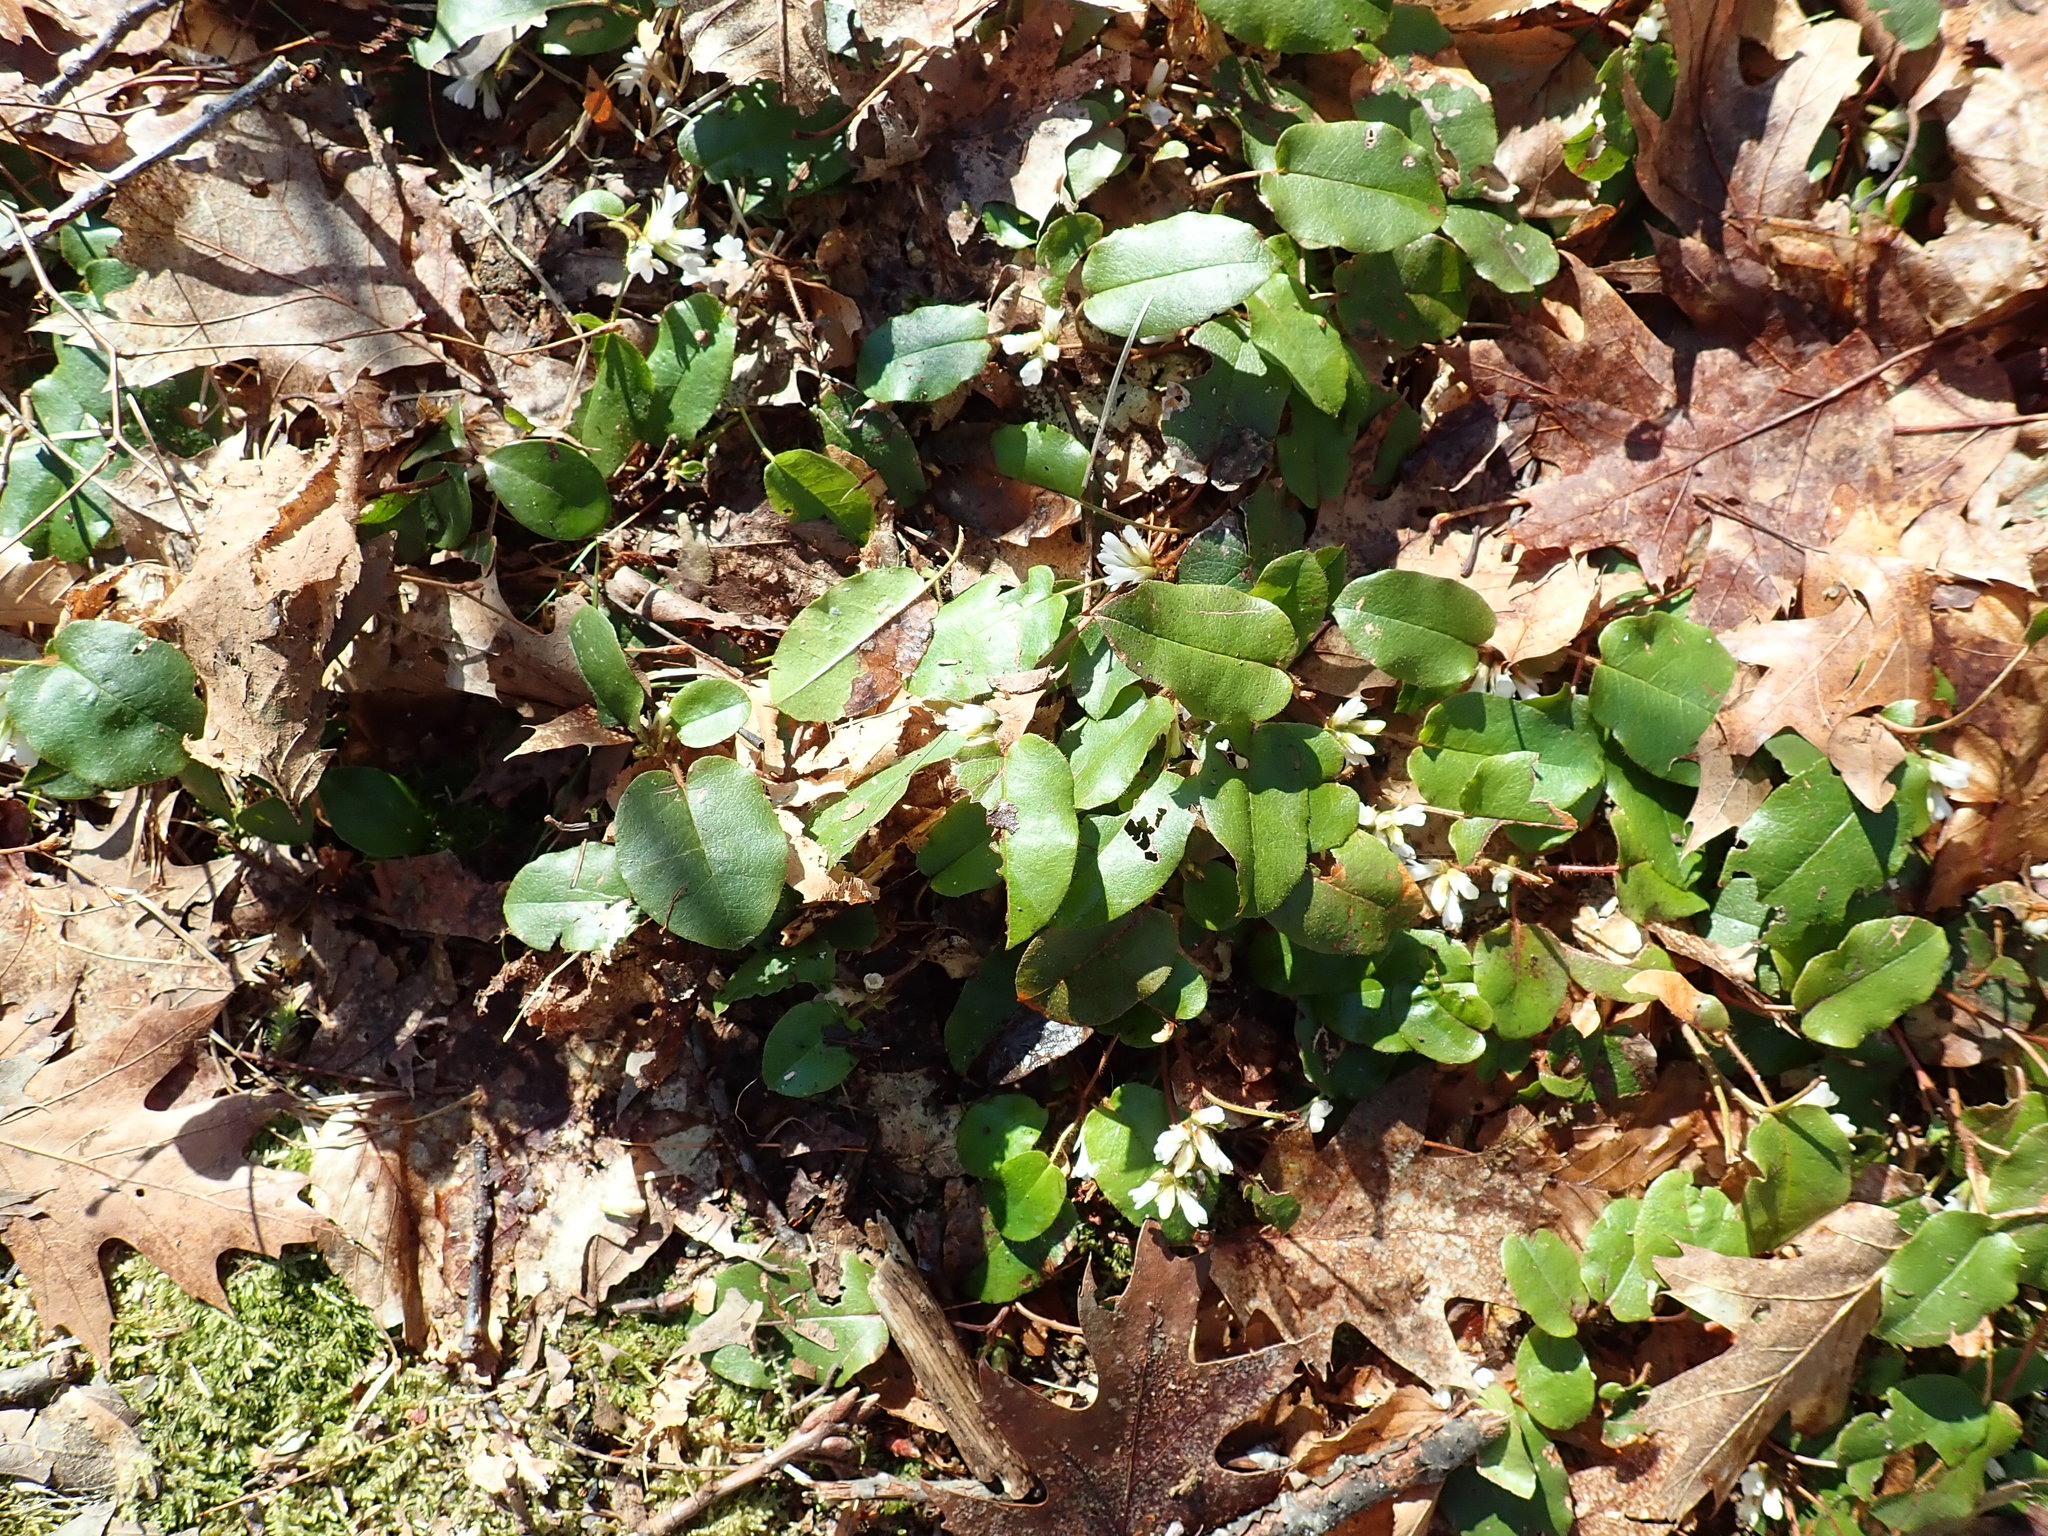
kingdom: Plantae
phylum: Tracheophyta
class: Magnoliopsida
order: Ericales
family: Ericaceae
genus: Epigaea
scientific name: Epigaea repens
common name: Gravelroot
